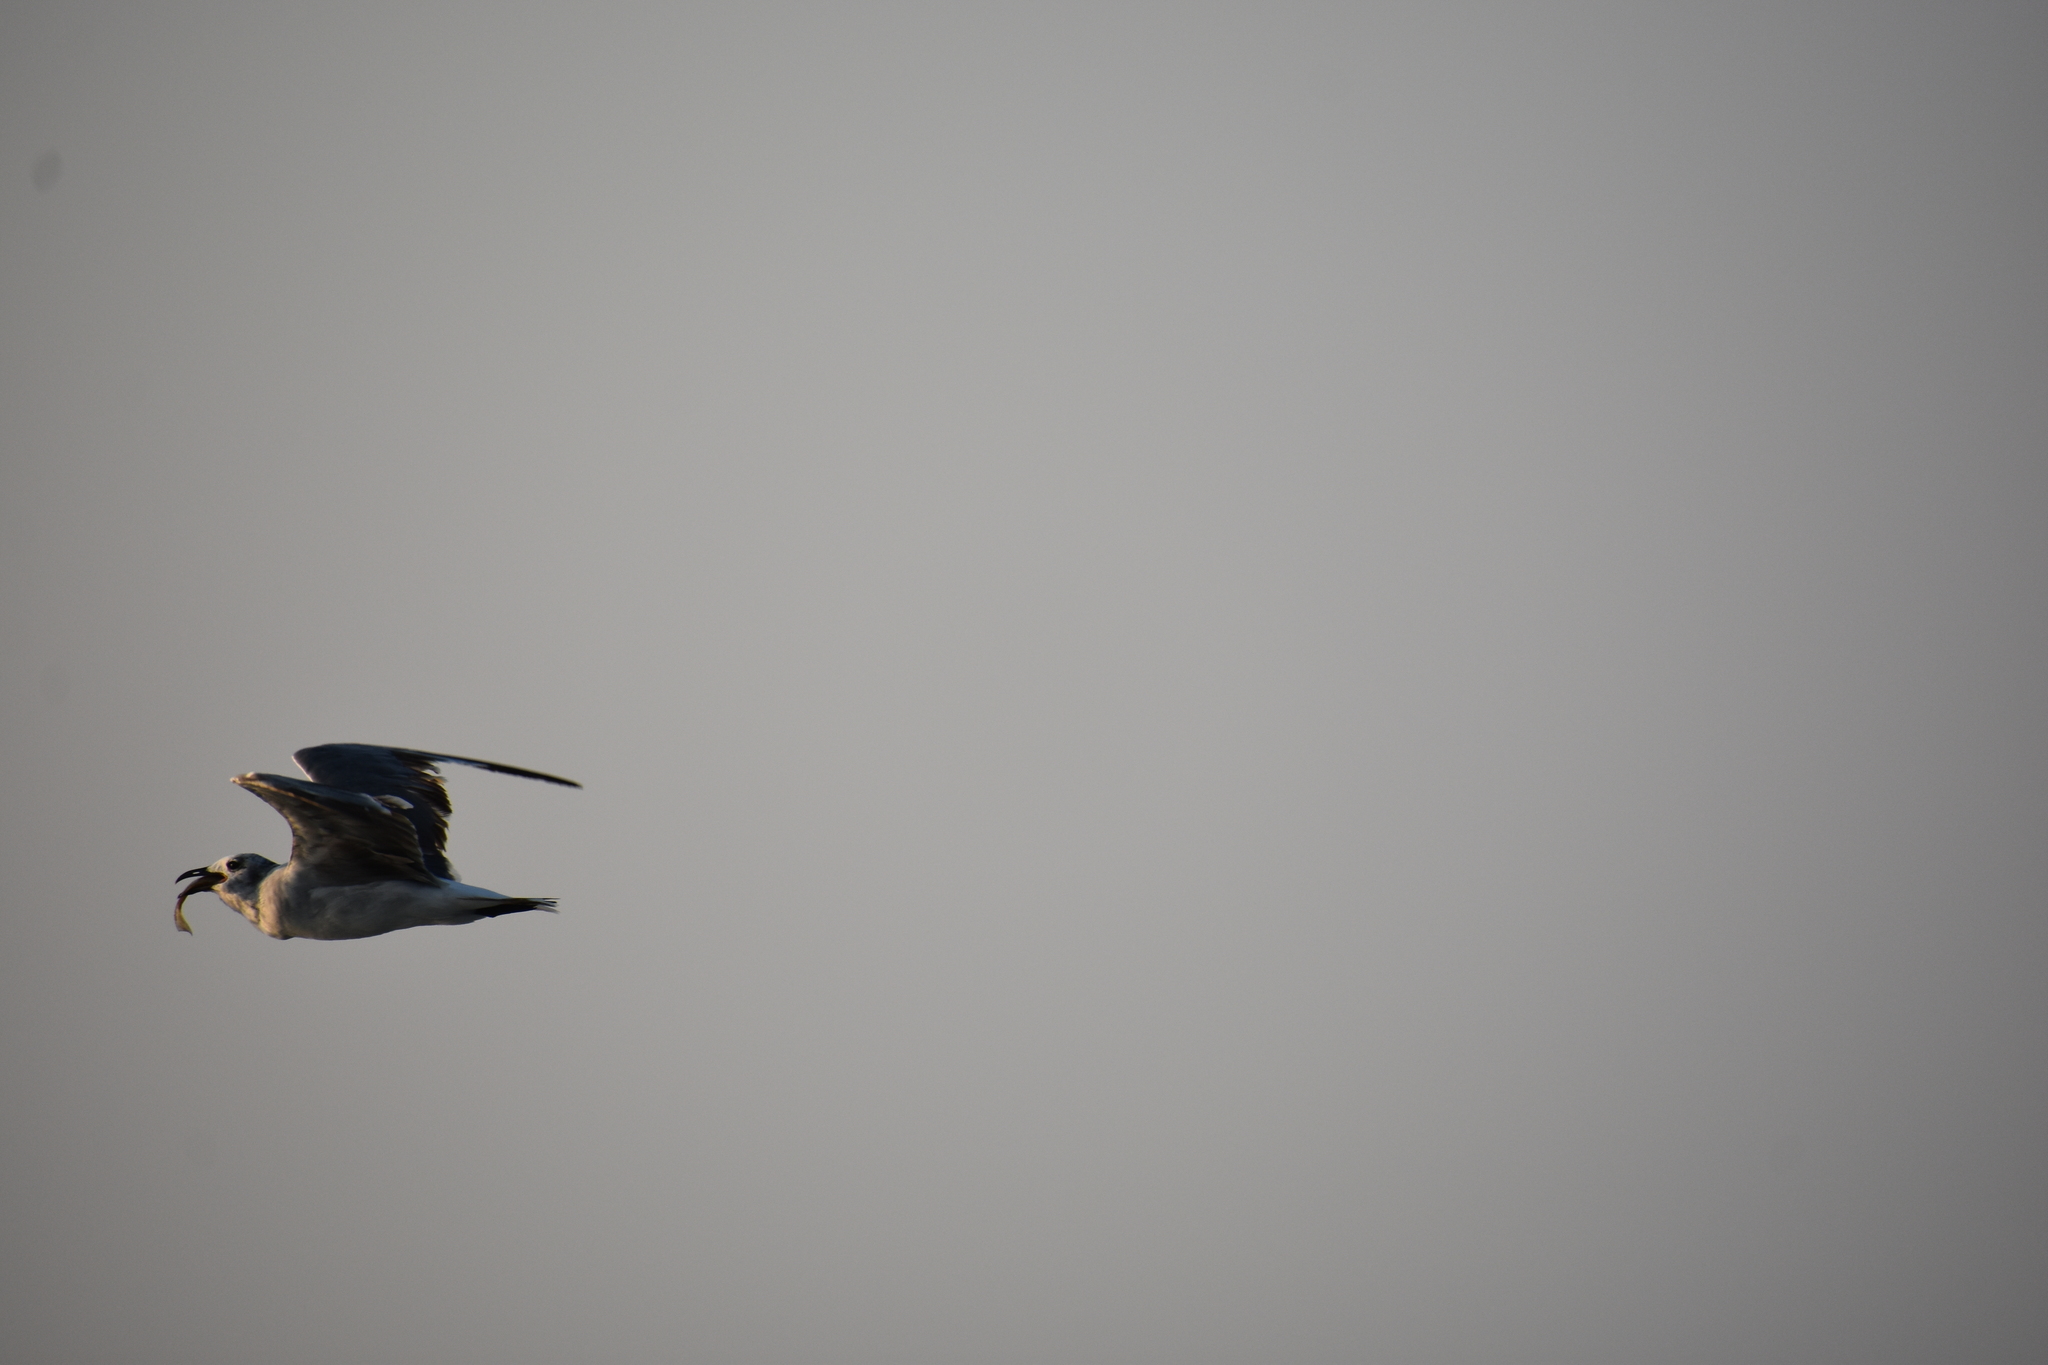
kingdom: Animalia
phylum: Chordata
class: Aves
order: Charadriiformes
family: Laridae
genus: Leucophaeus
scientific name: Leucophaeus atricilla
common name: Laughing gull
